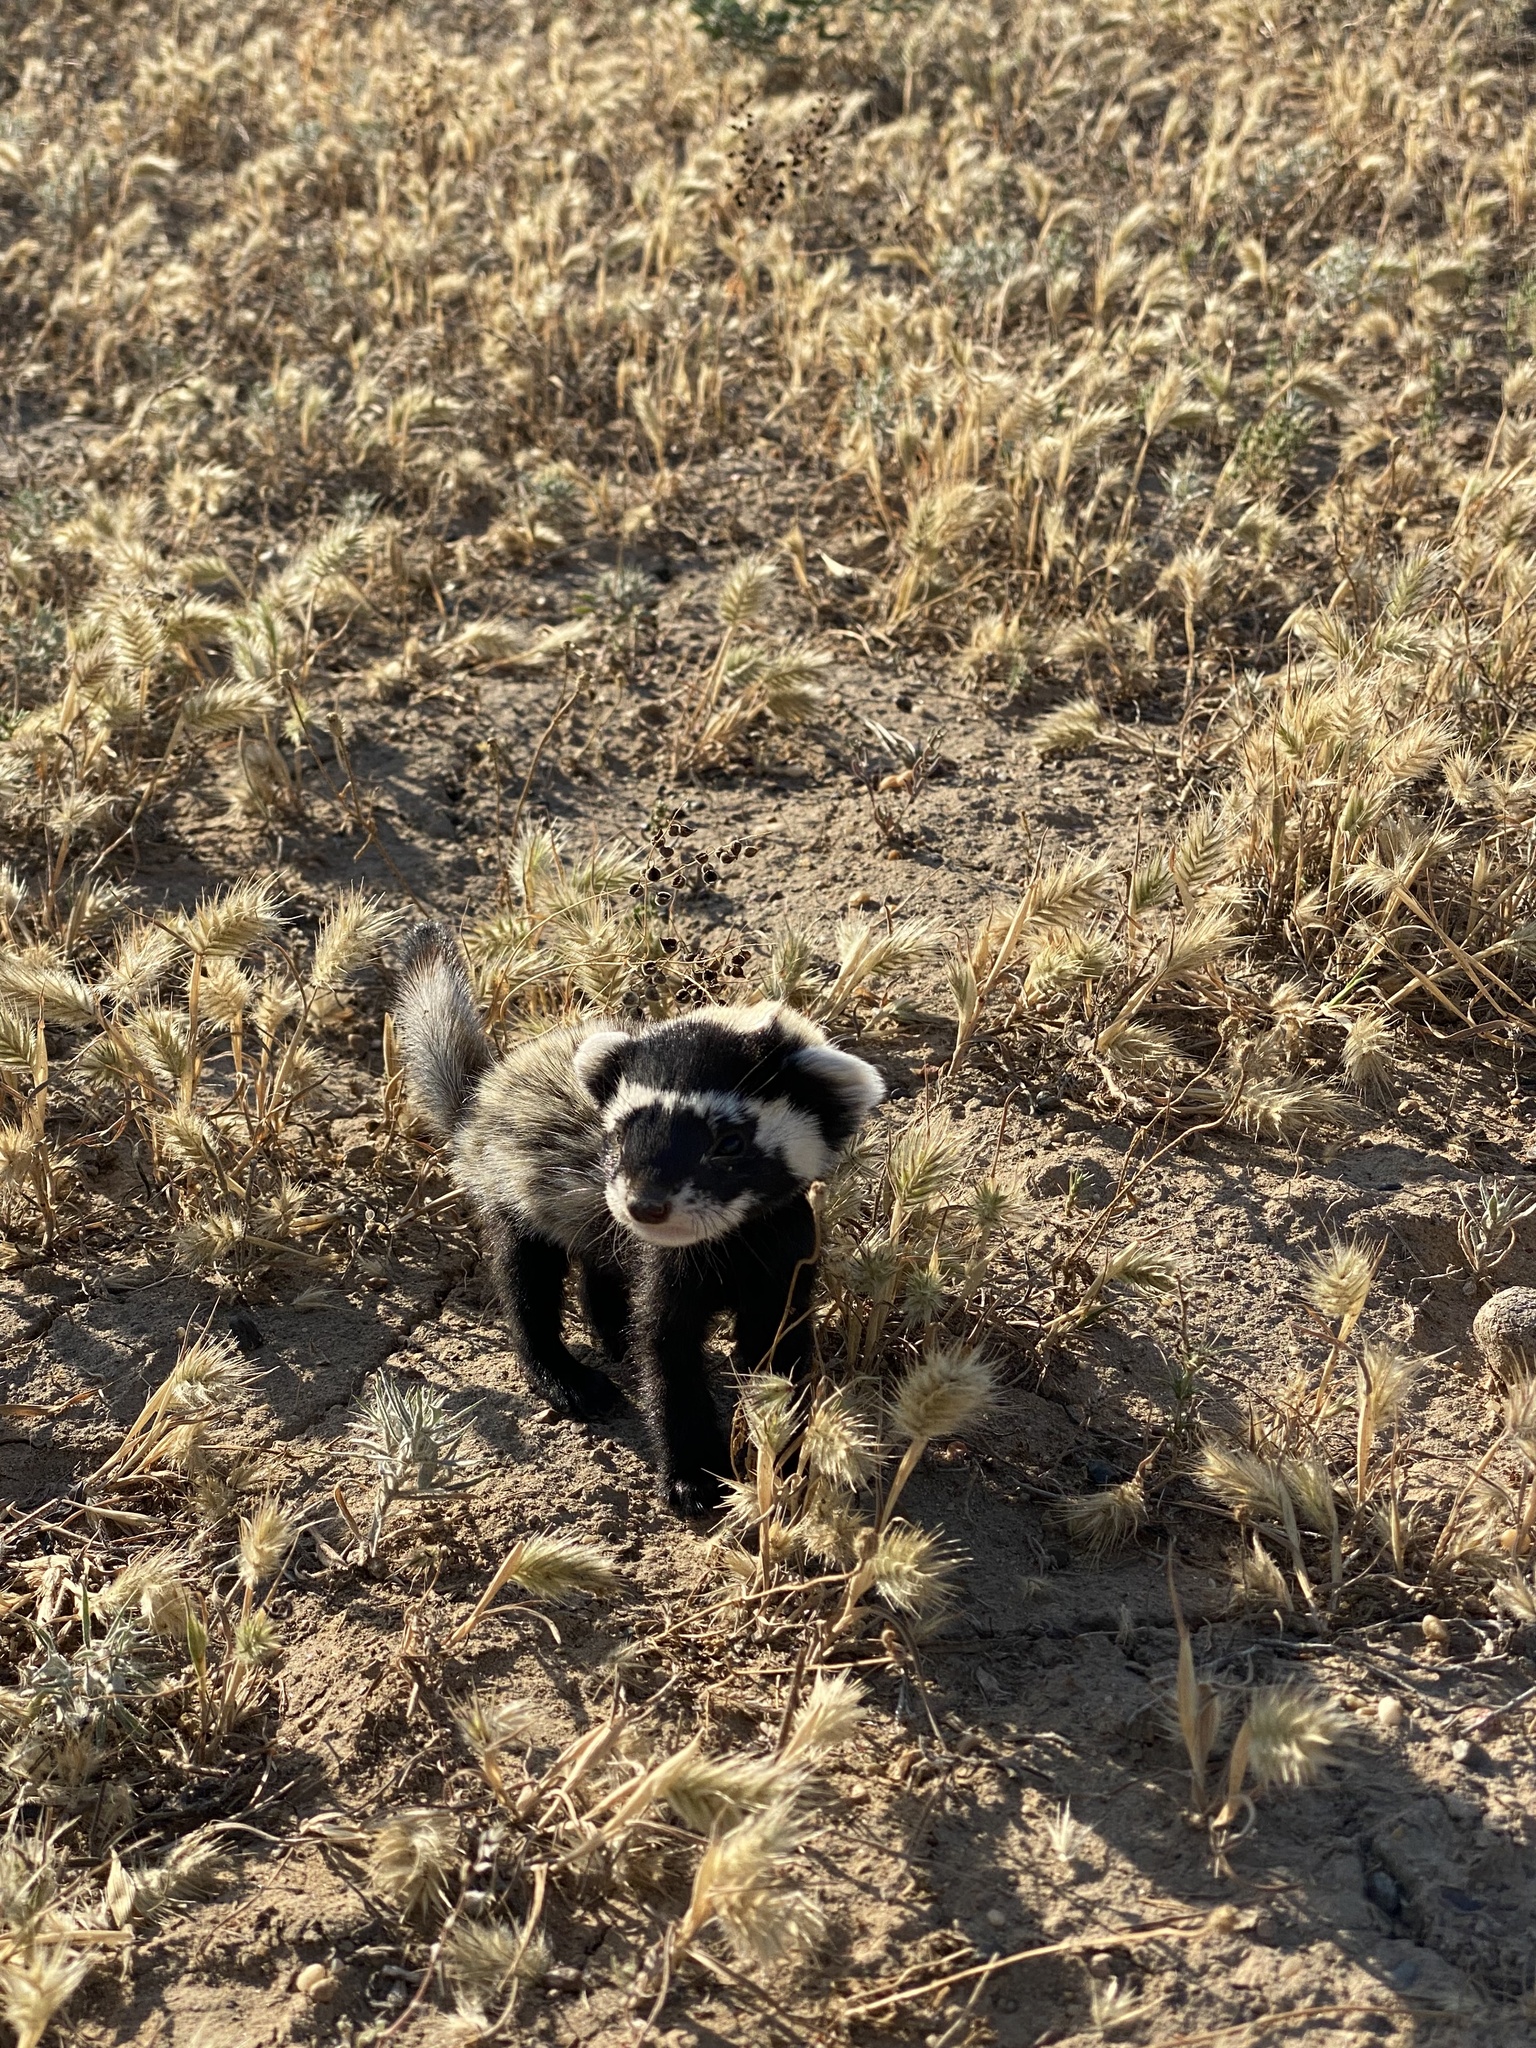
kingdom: Animalia
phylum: Chordata
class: Mammalia
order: Carnivora
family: Mustelidae
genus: Vormela
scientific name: Vormela peregusna
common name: Marbled polecat
